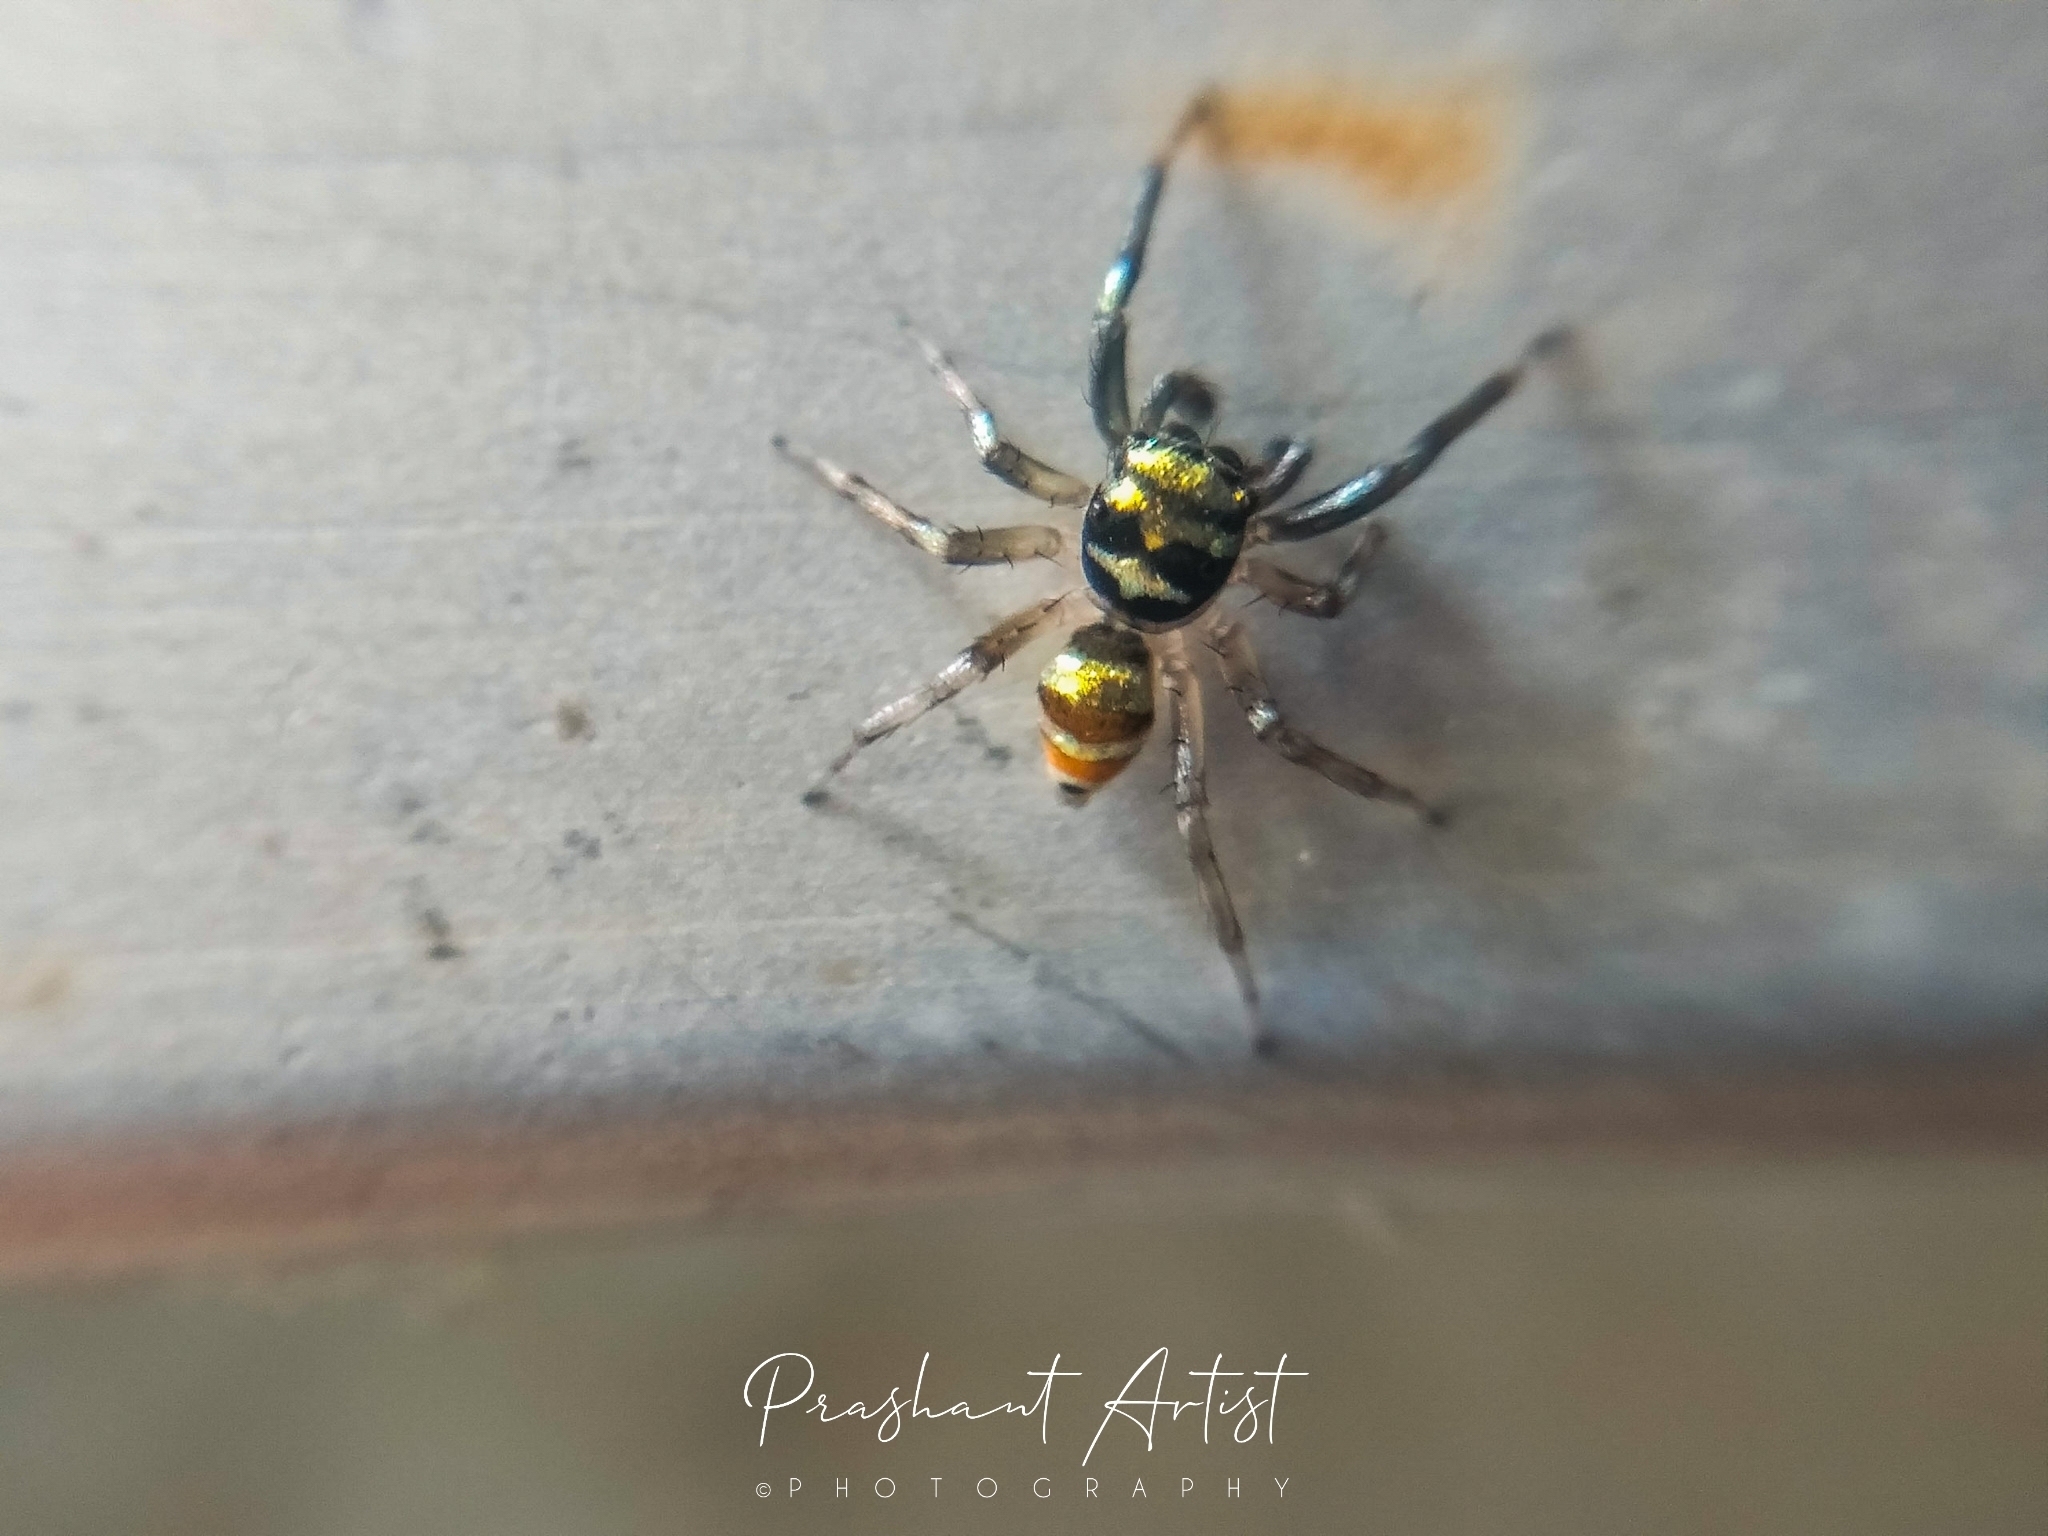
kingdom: Animalia
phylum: Arthropoda
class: Arachnida
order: Araneae
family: Salticidae
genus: Phintella
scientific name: Phintella vittata
